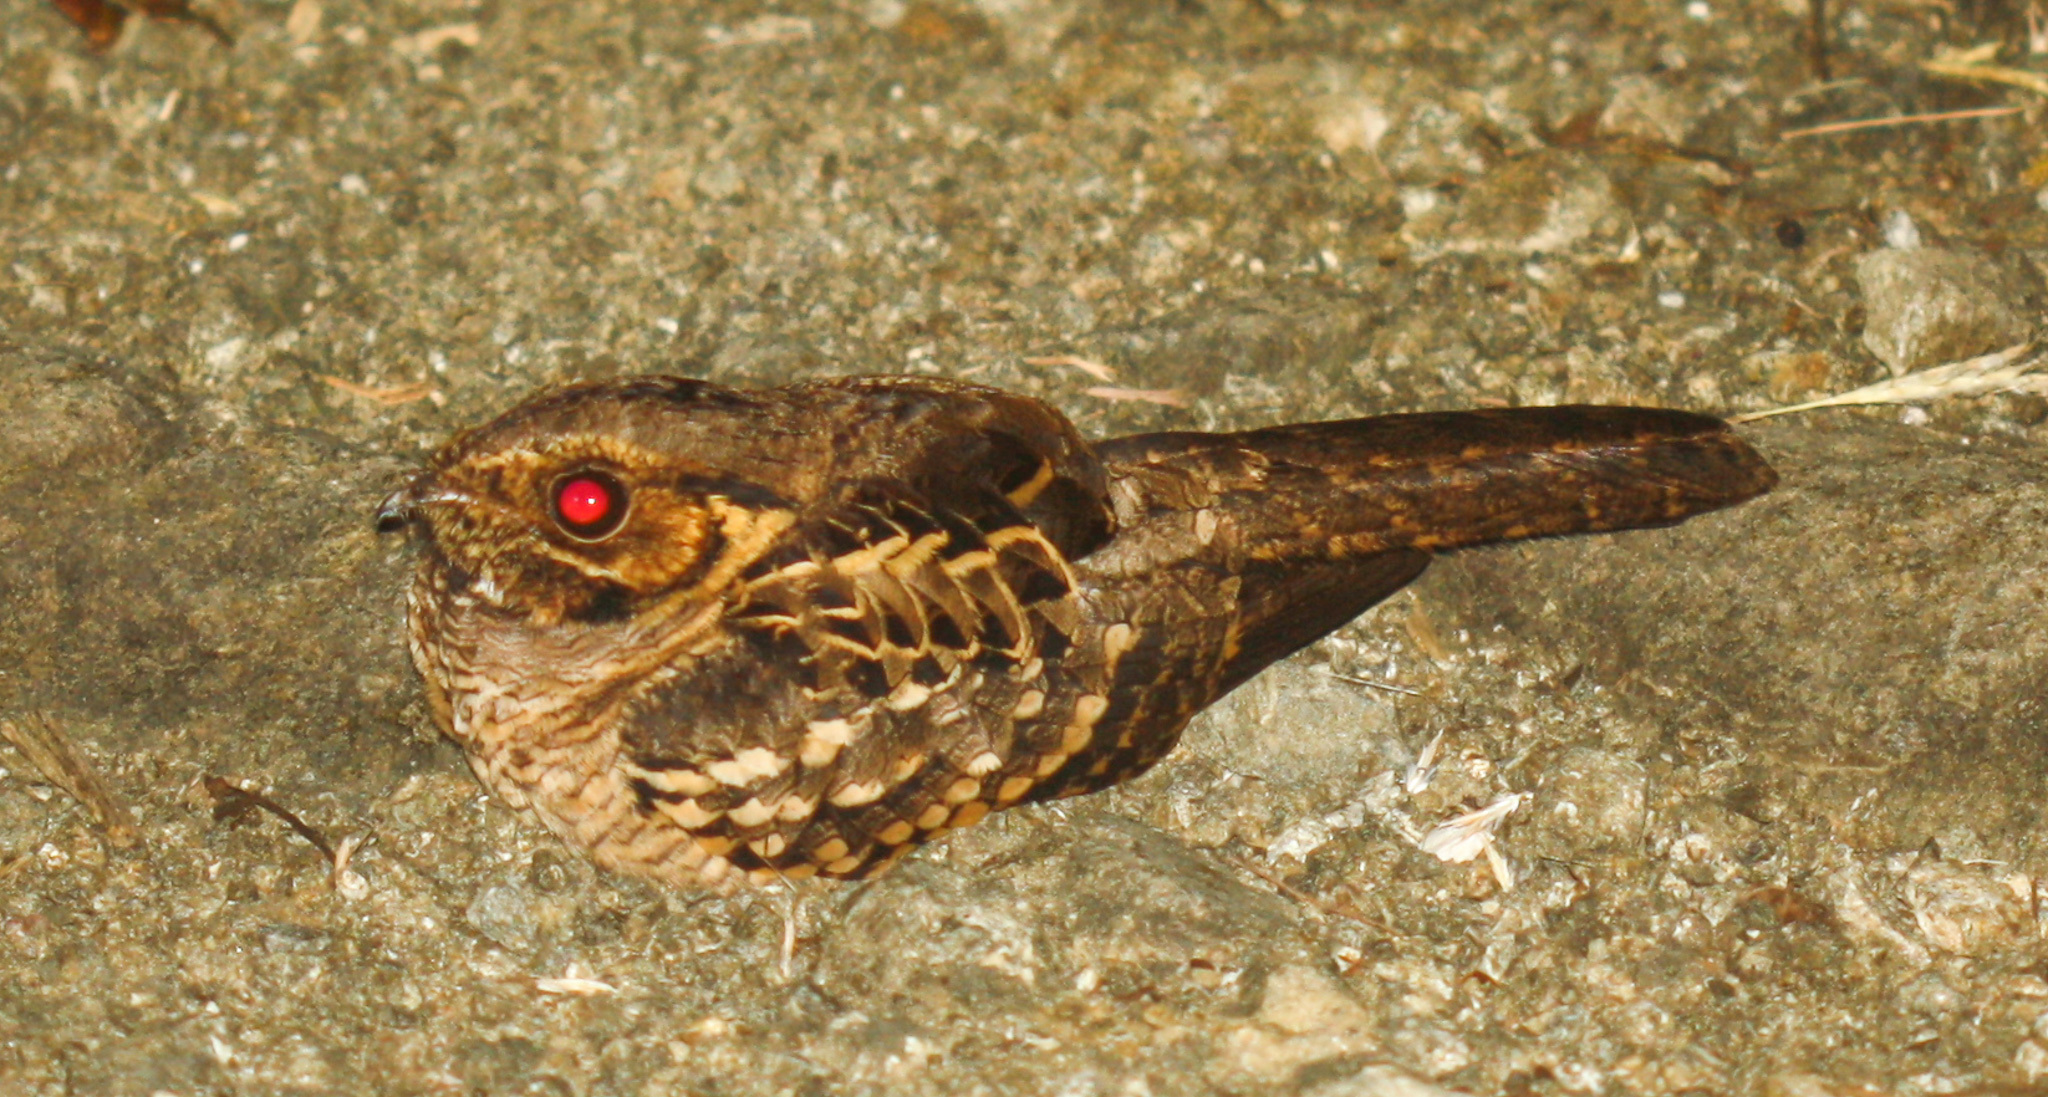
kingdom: Animalia
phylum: Chordata
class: Aves
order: Caprimulgiformes
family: Caprimulgidae
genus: Nyctidromus
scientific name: Nyctidromus albicollis
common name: Pauraque
